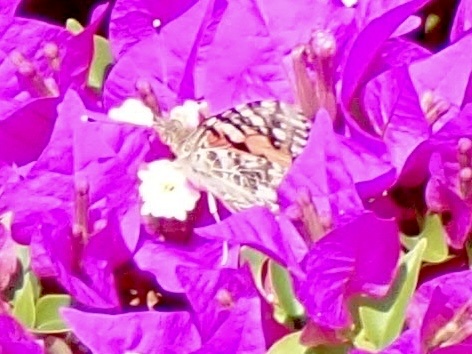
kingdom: Animalia
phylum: Arthropoda
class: Insecta
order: Lepidoptera
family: Nymphalidae
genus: Vanessa
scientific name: Vanessa cardui
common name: Painted lady
